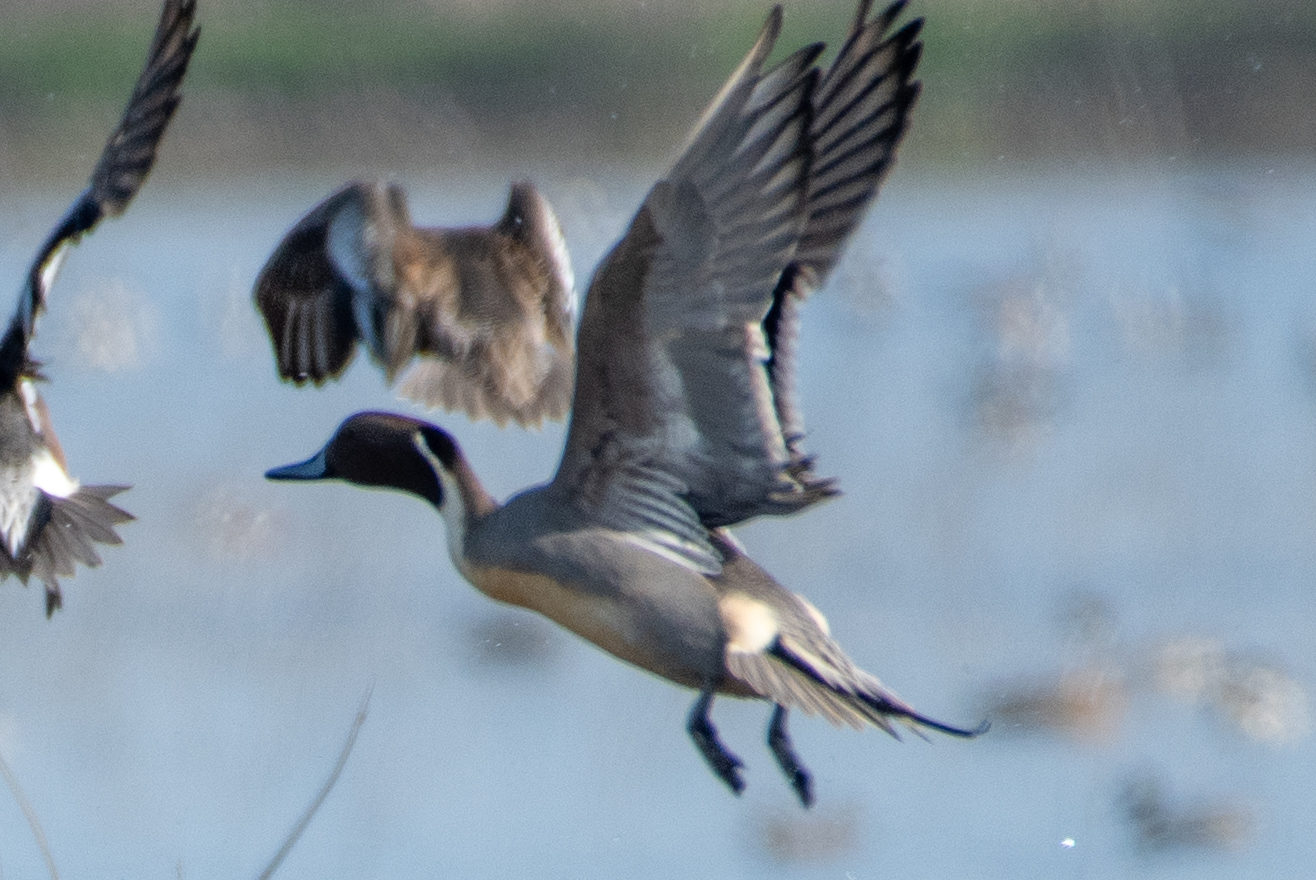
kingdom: Animalia
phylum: Chordata
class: Aves
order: Anseriformes
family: Anatidae
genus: Anas
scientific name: Anas acuta
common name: Northern pintail
